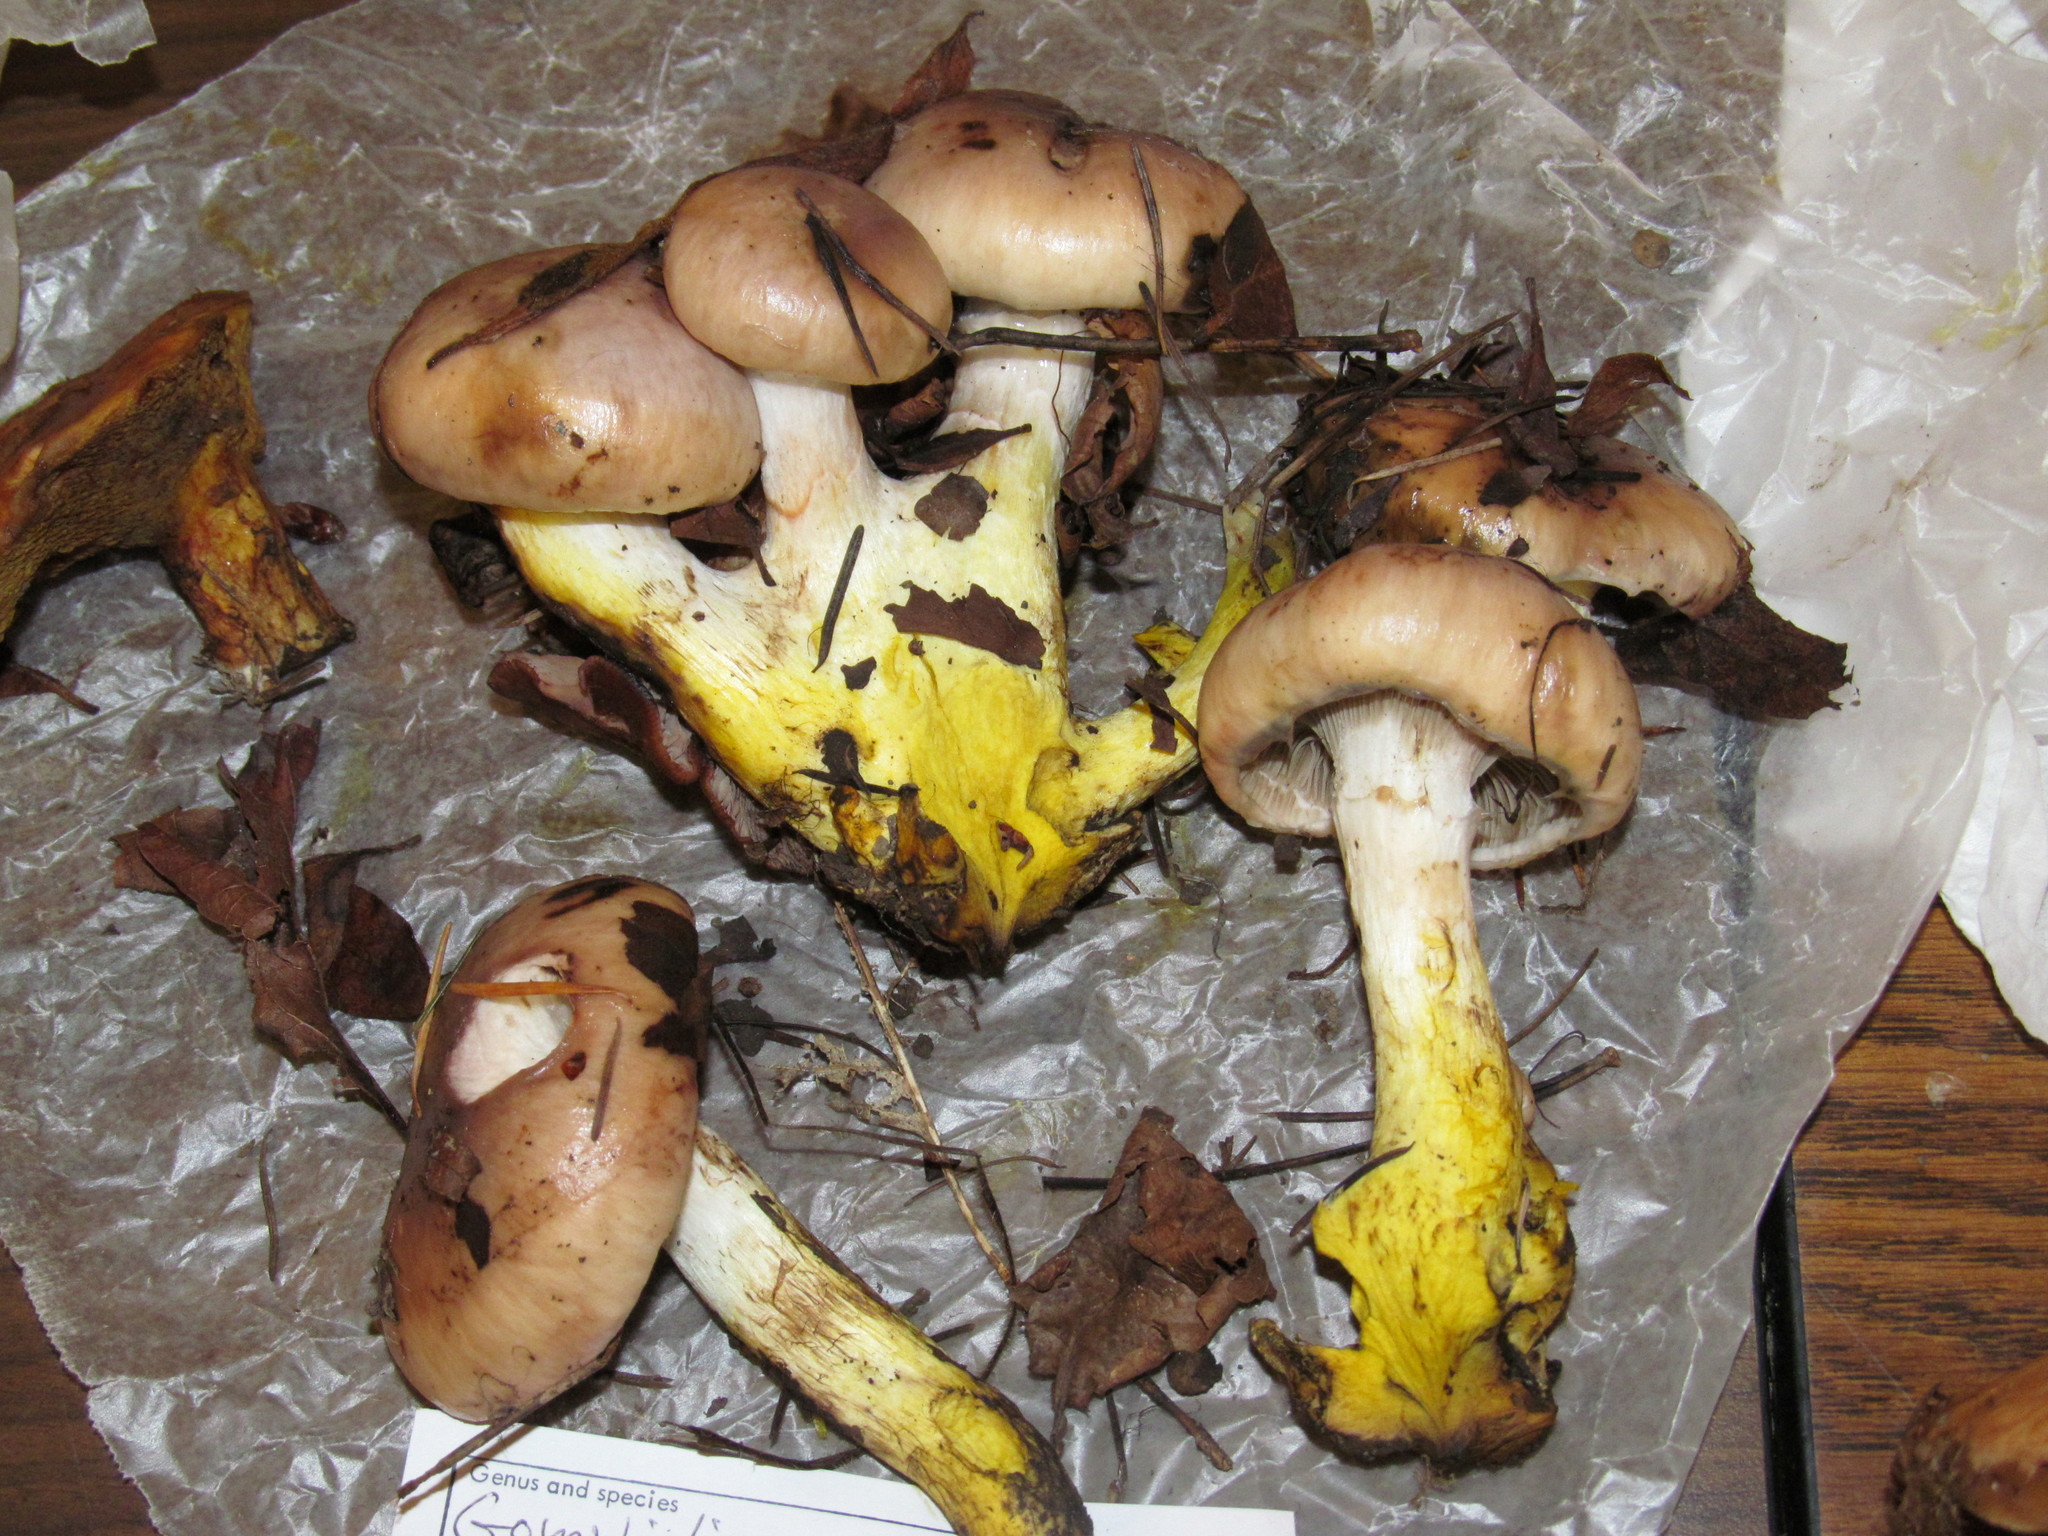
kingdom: Fungi
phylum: Basidiomycota
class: Agaricomycetes
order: Boletales
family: Gomphidiaceae
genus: Gomphidius
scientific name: Gomphidius oregonensis
